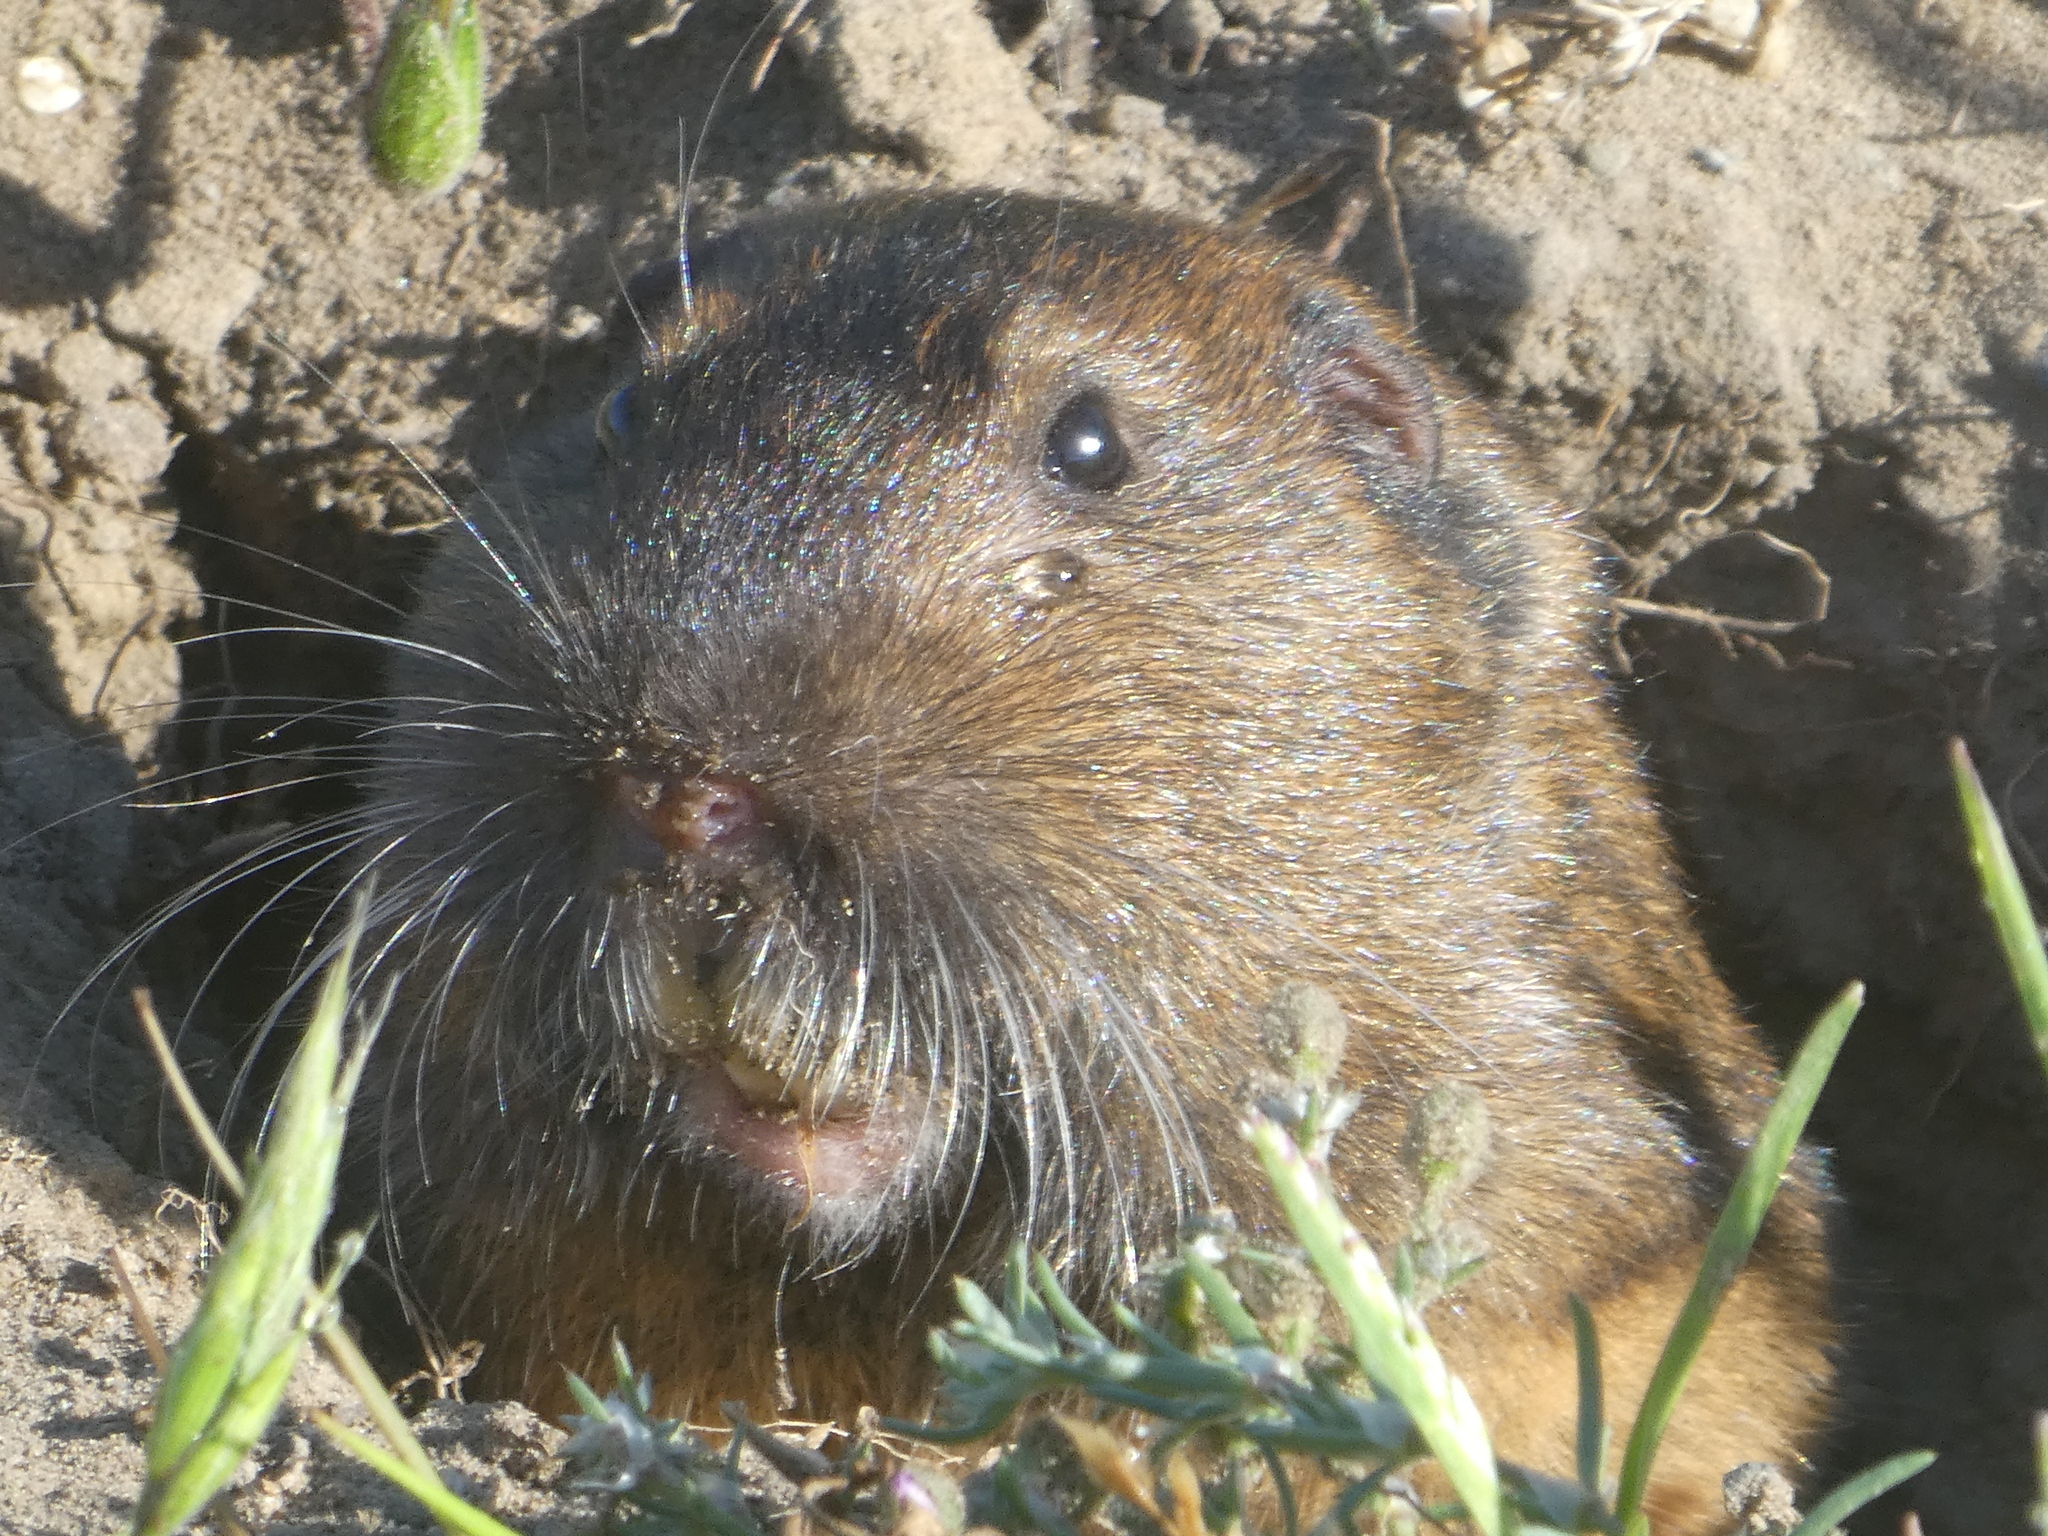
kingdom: Animalia
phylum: Chordata
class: Mammalia
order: Rodentia
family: Geomyidae
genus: Thomomys
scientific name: Thomomys bottae
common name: Botta's pocket gopher
